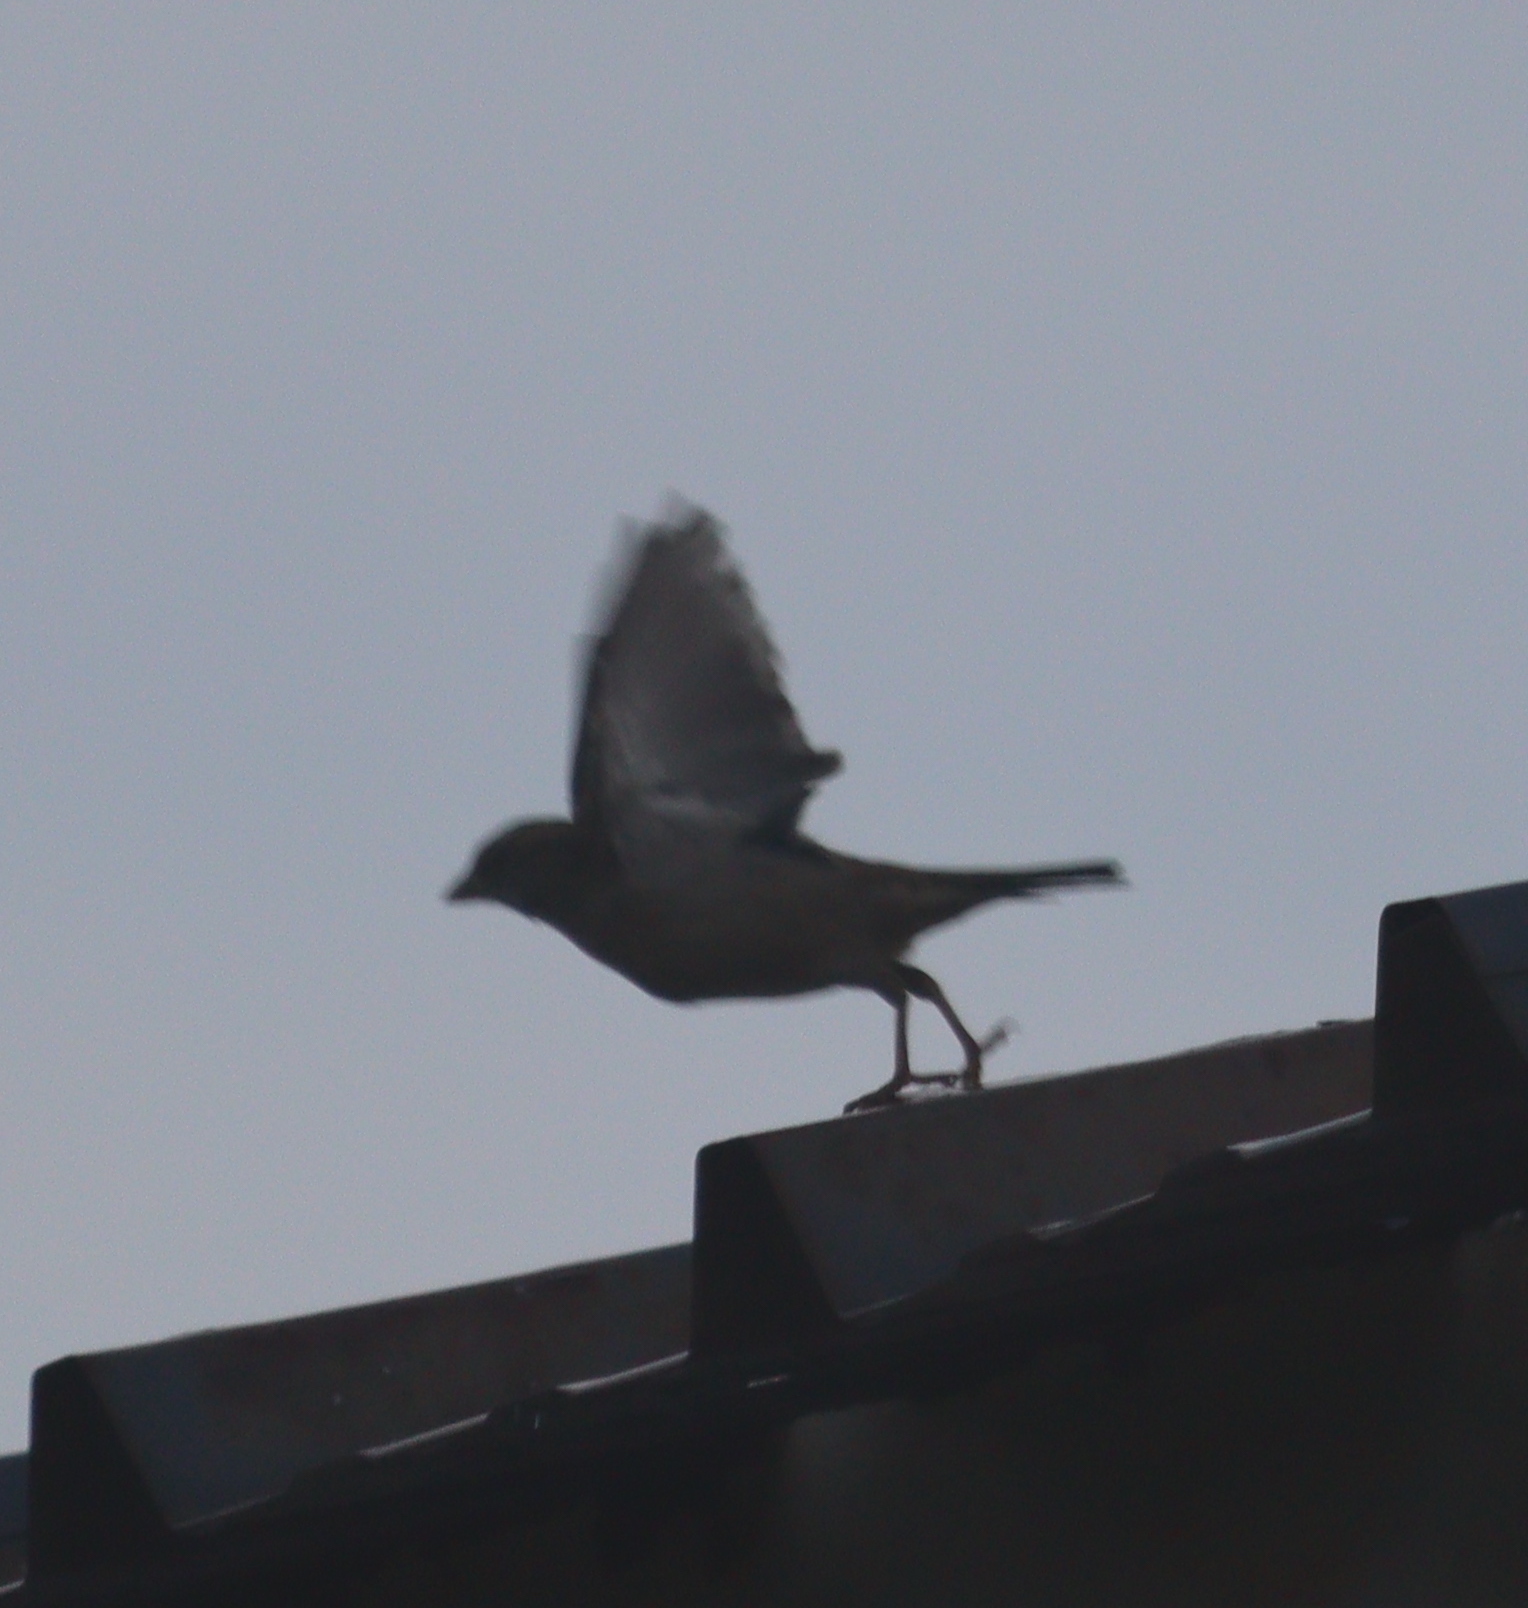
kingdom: Animalia
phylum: Chordata
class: Aves
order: Passeriformes
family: Passeridae
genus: Passer
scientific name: Passer domesticus
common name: House sparrow
